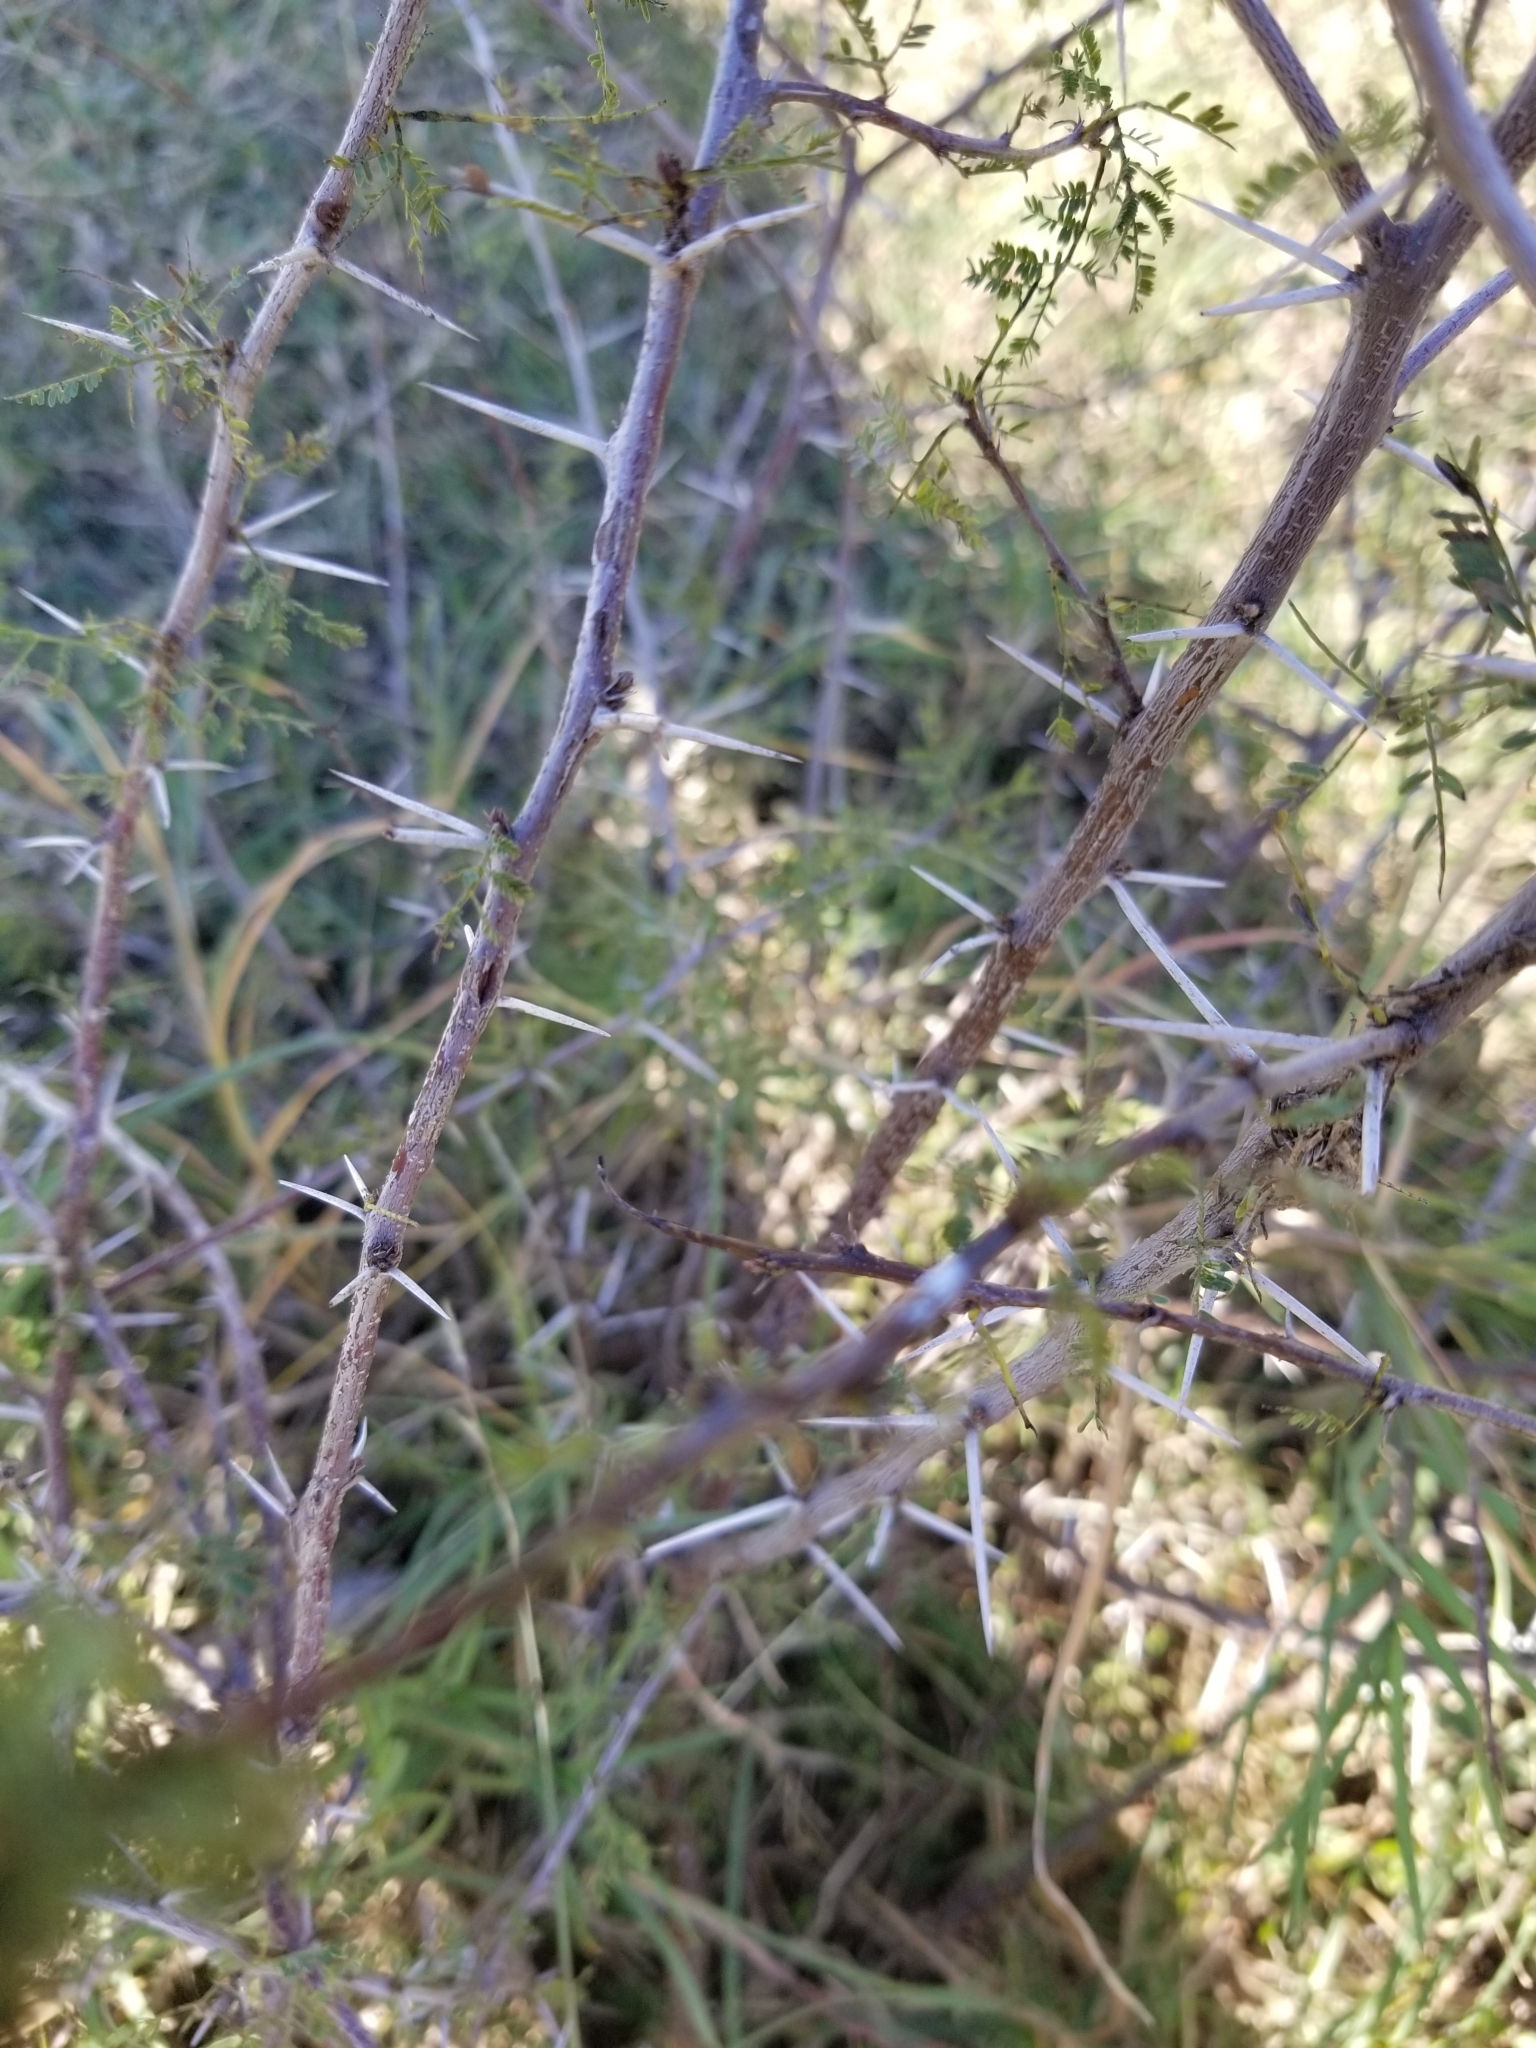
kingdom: Plantae
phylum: Tracheophyta
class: Magnoliopsida
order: Fabales
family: Fabaceae
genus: Vachellia
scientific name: Vachellia farnesiana
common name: Sweet acacia
